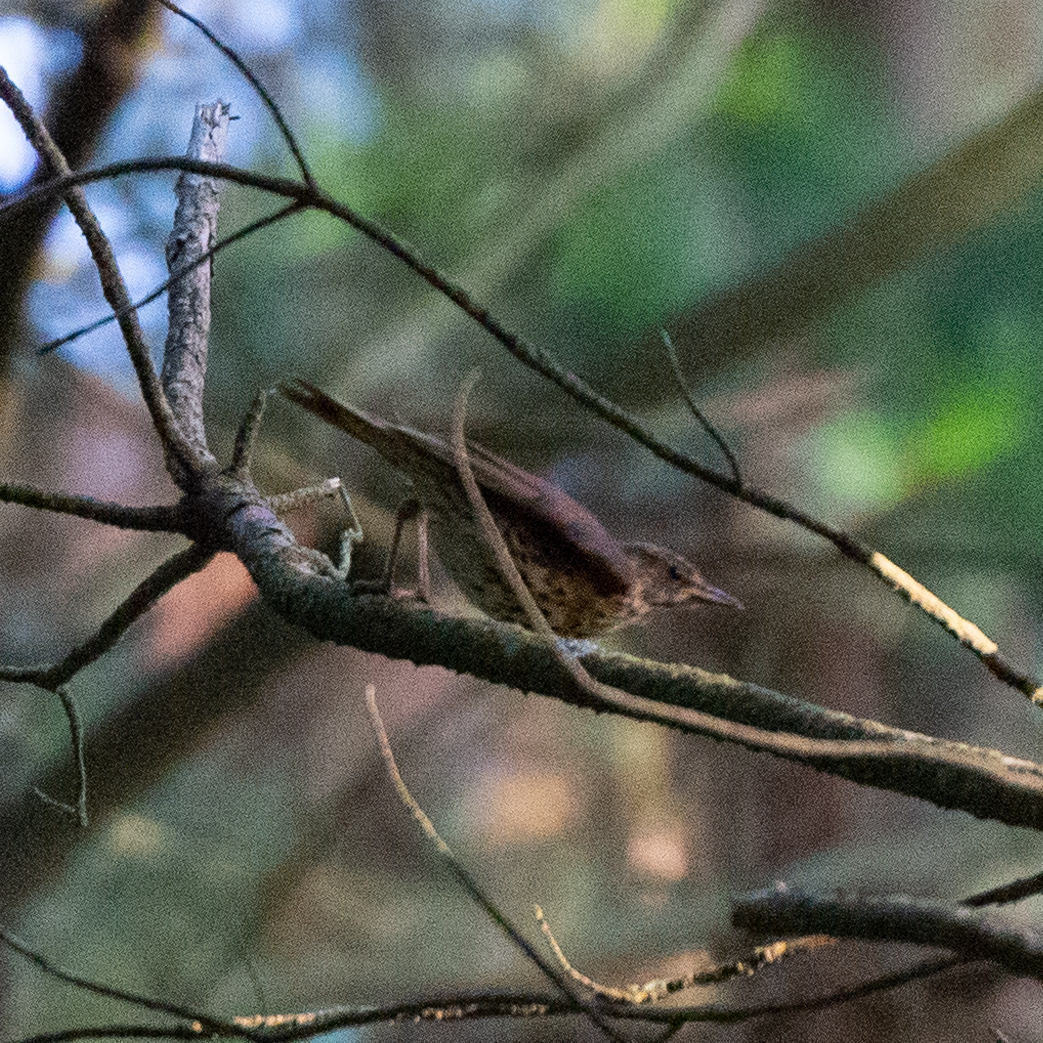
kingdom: Animalia
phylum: Chordata
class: Aves
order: Passeriformes
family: Turdidae
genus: Turdus
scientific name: Turdus philomelos
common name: Song thrush
